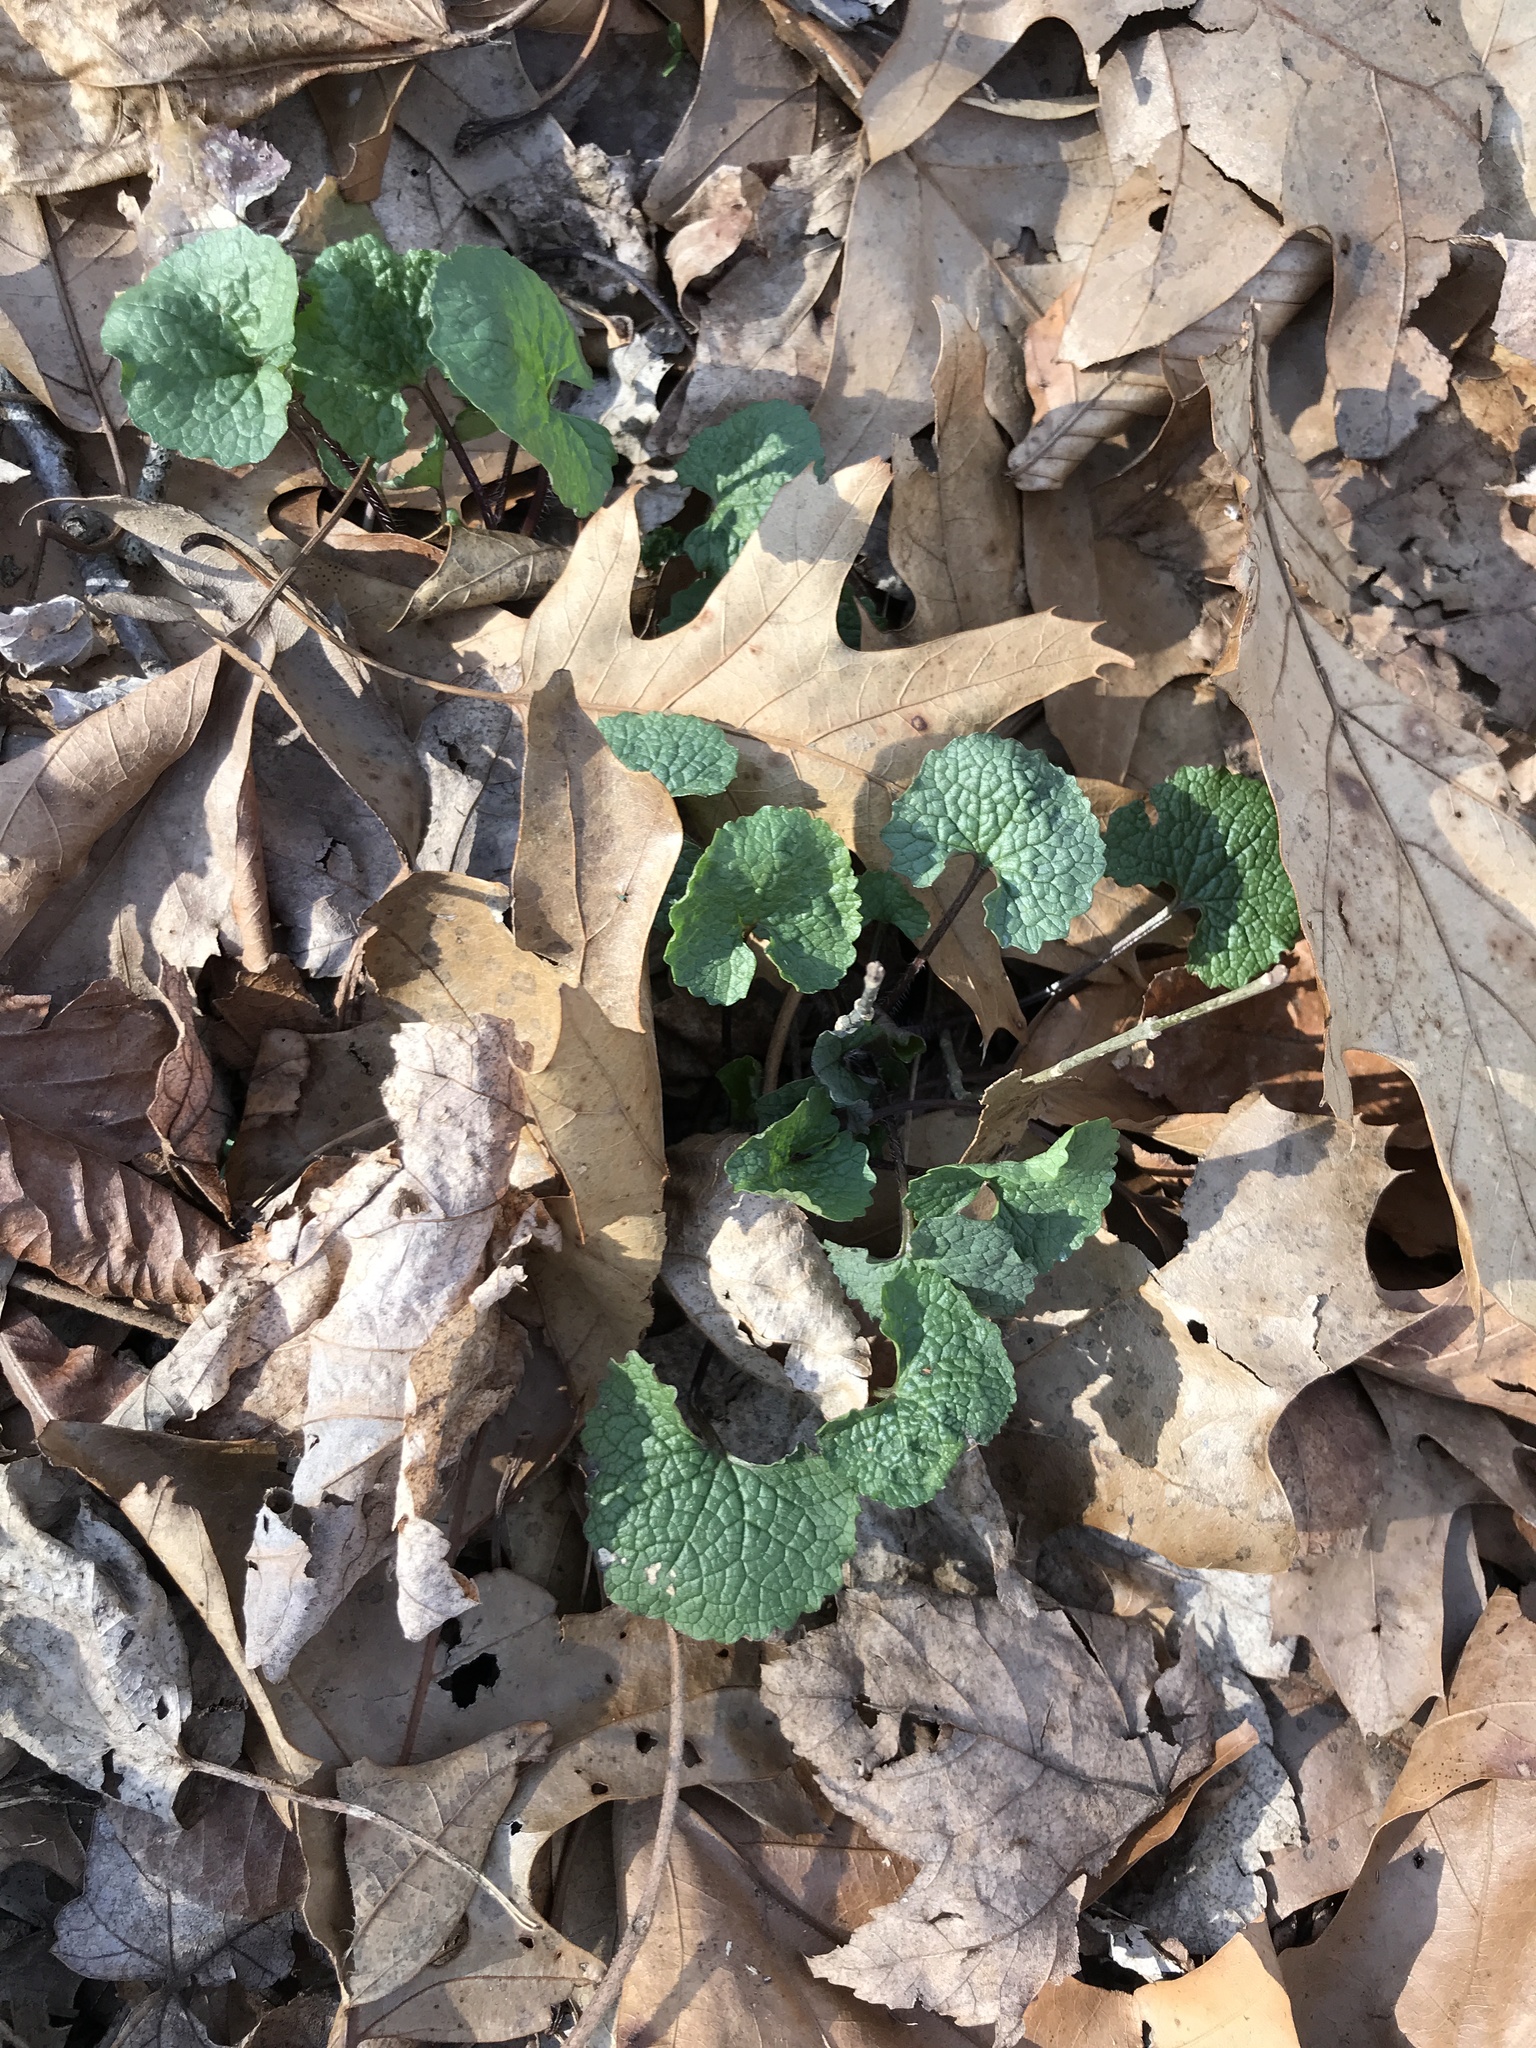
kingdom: Plantae
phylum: Tracheophyta
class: Magnoliopsida
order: Brassicales
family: Brassicaceae
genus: Alliaria
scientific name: Alliaria petiolata
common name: Garlic mustard
